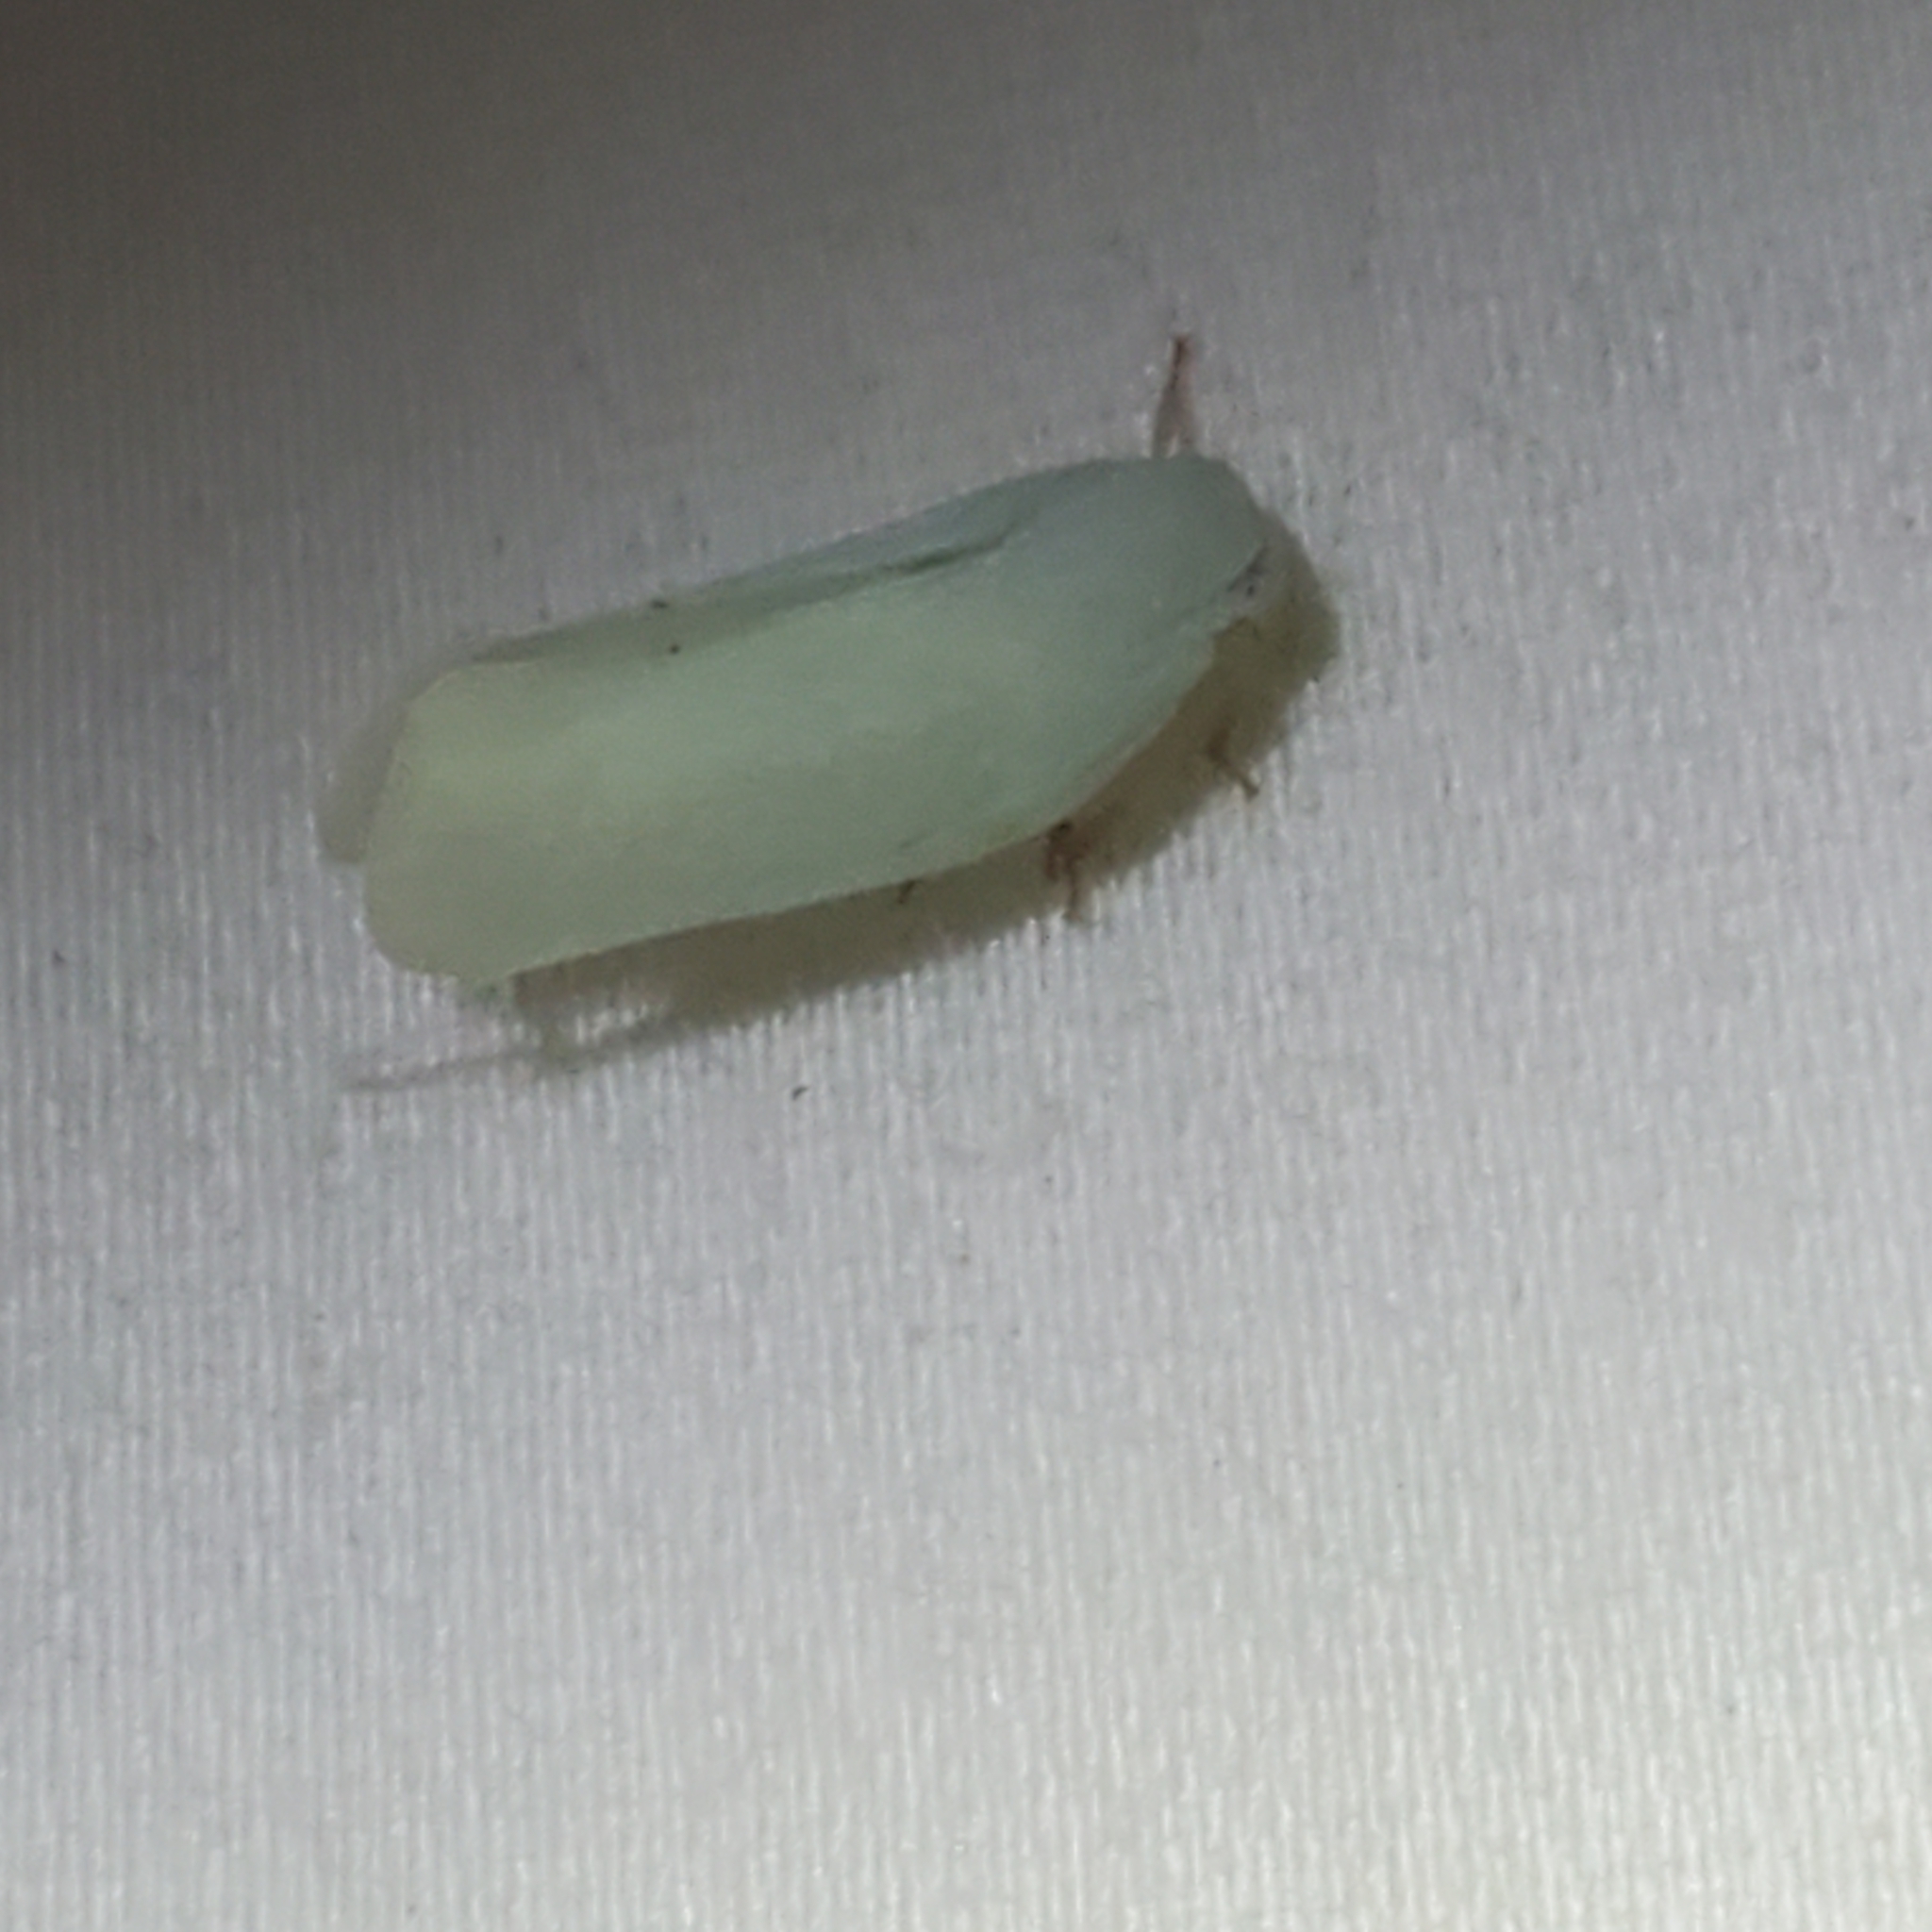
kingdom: Animalia
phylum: Arthropoda
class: Insecta
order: Hemiptera
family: Flatidae
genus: Flatormenis
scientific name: Flatormenis proxima
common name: Northern flatid planthopper
